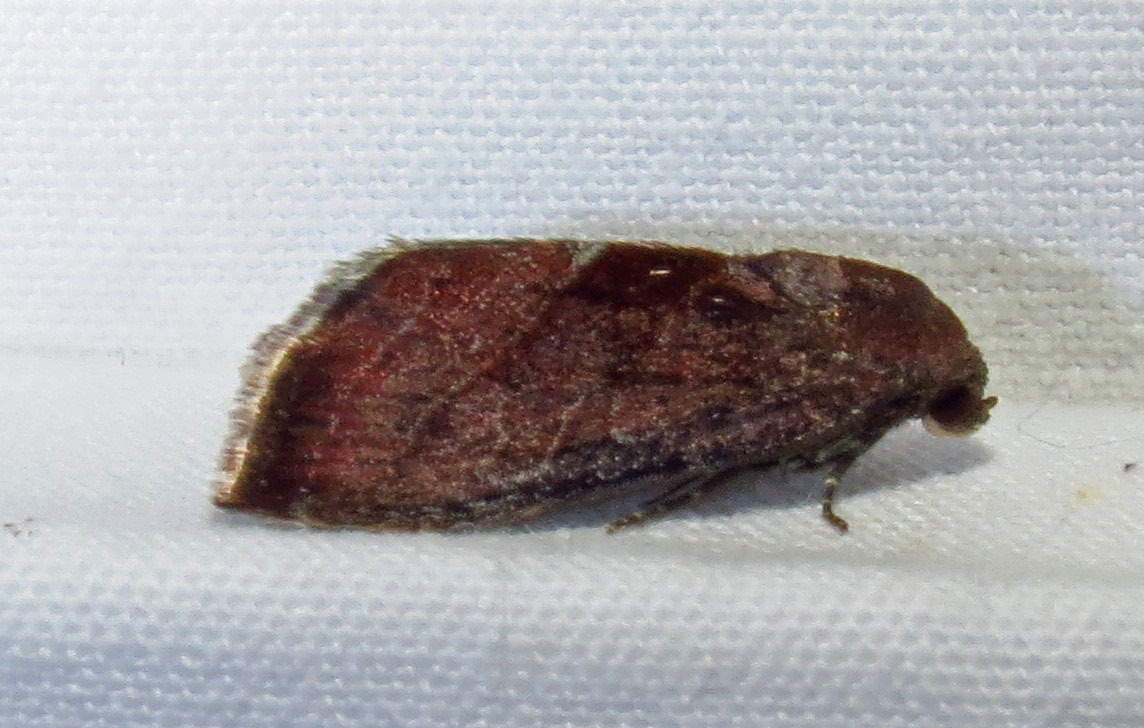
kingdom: Animalia
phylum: Arthropoda
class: Insecta
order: Lepidoptera
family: Noctuidae
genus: Galgula
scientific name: Galgula partita
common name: Wedgeling
